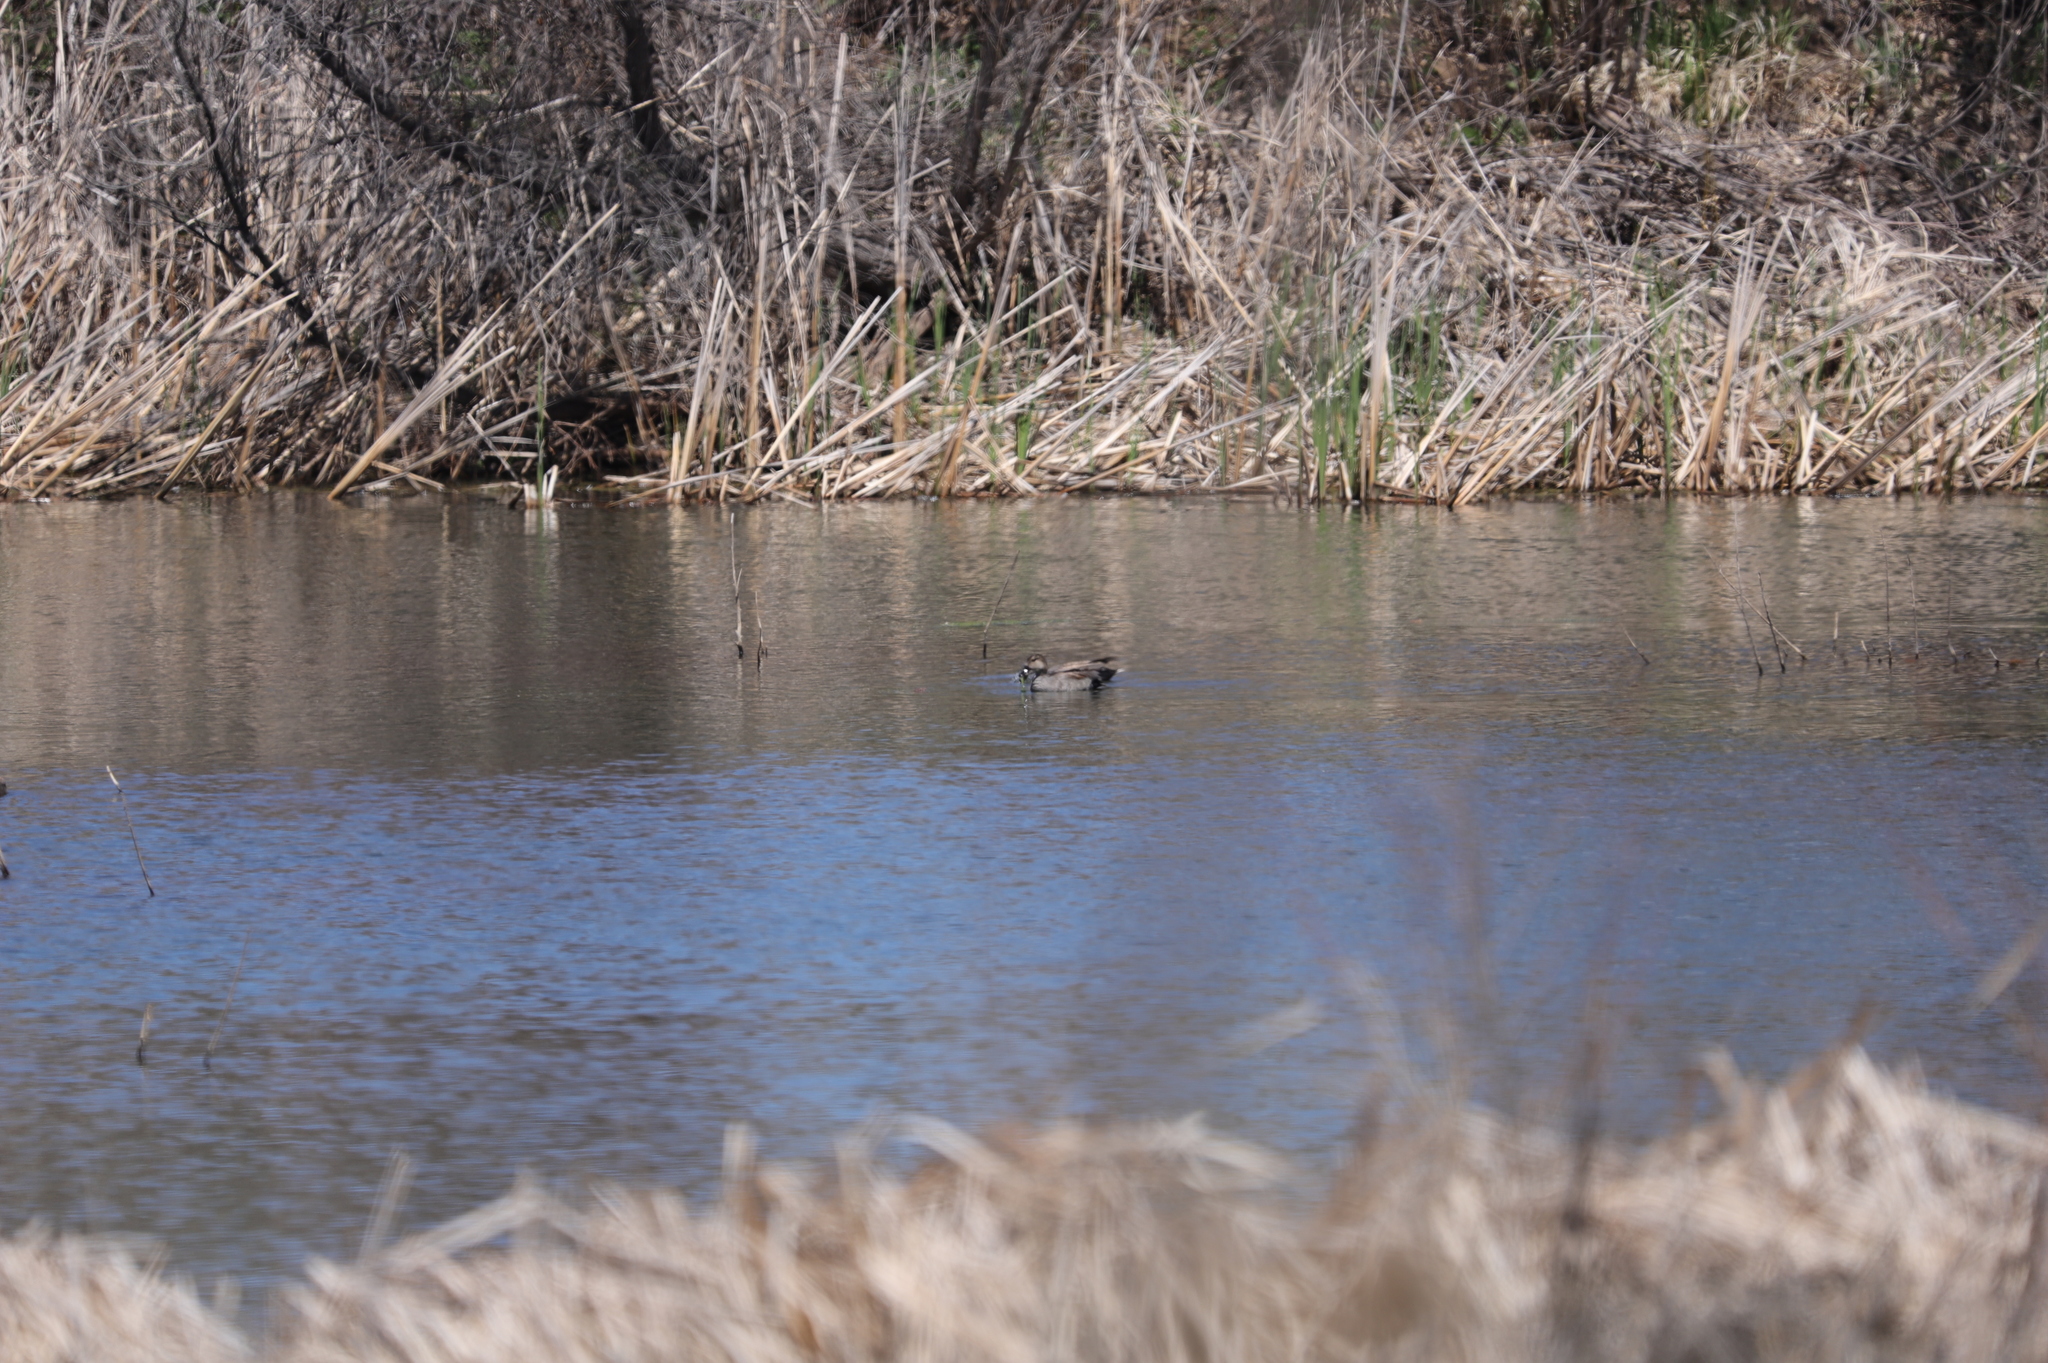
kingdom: Animalia
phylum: Chordata
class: Aves
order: Anseriformes
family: Anatidae
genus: Mareca
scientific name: Mareca strepera
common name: Gadwall
